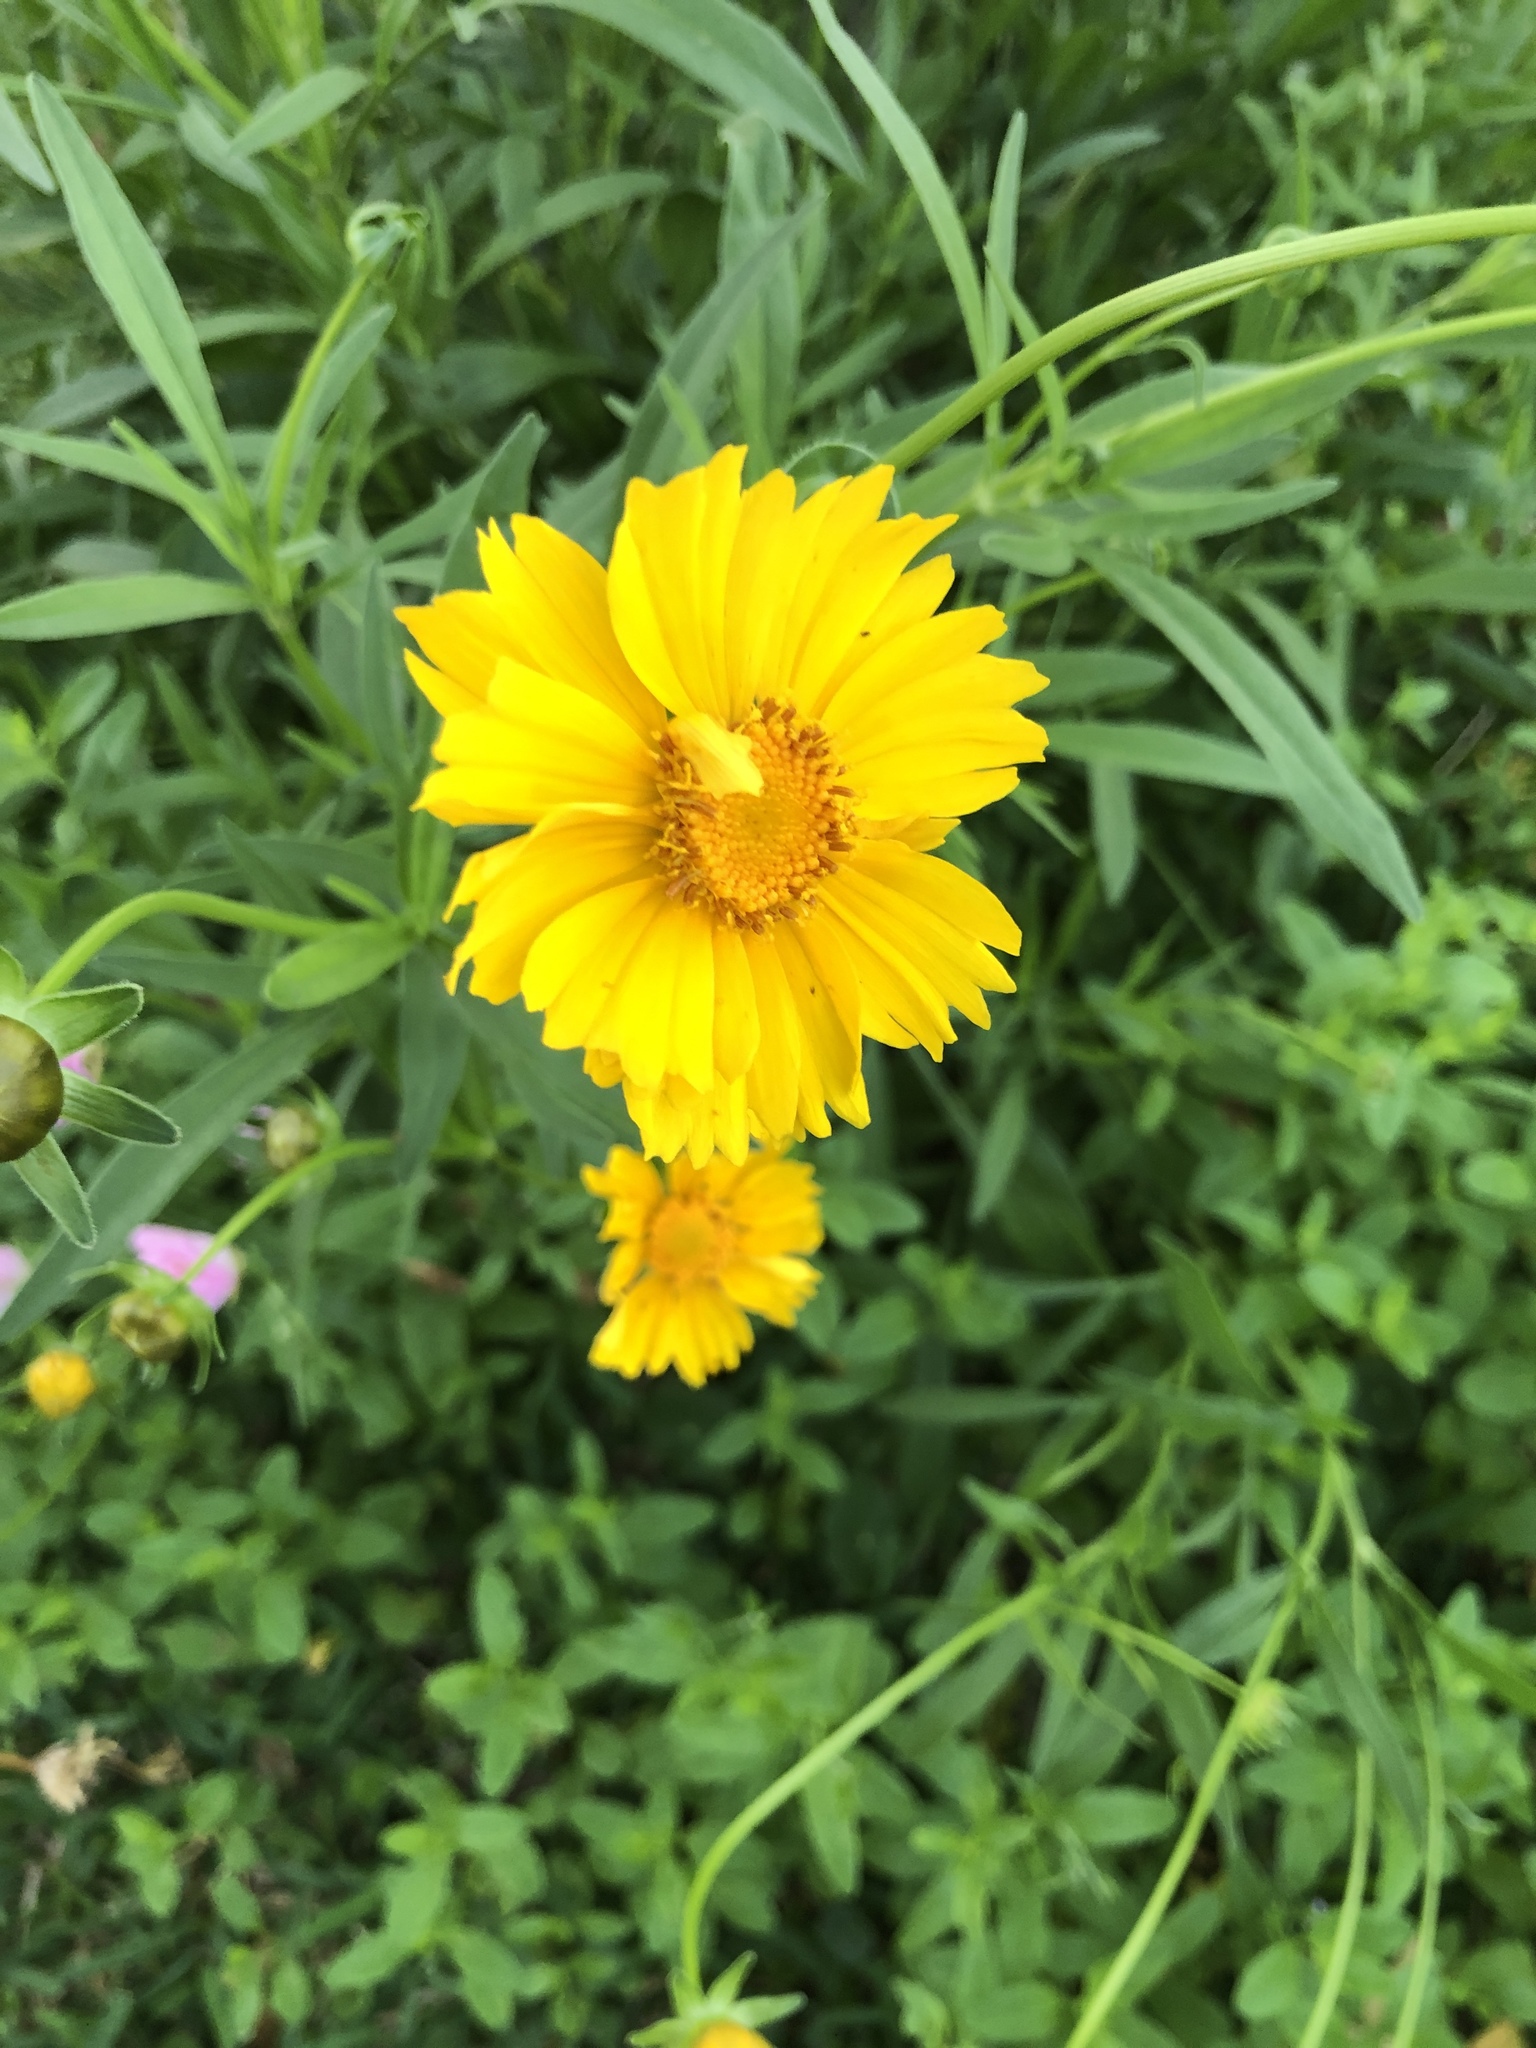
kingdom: Plantae
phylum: Tracheophyta
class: Magnoliopsida
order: Asterales
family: Asteraceae
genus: Coreopsis
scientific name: Coreopsis lanceolata
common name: Garden coreopsis
